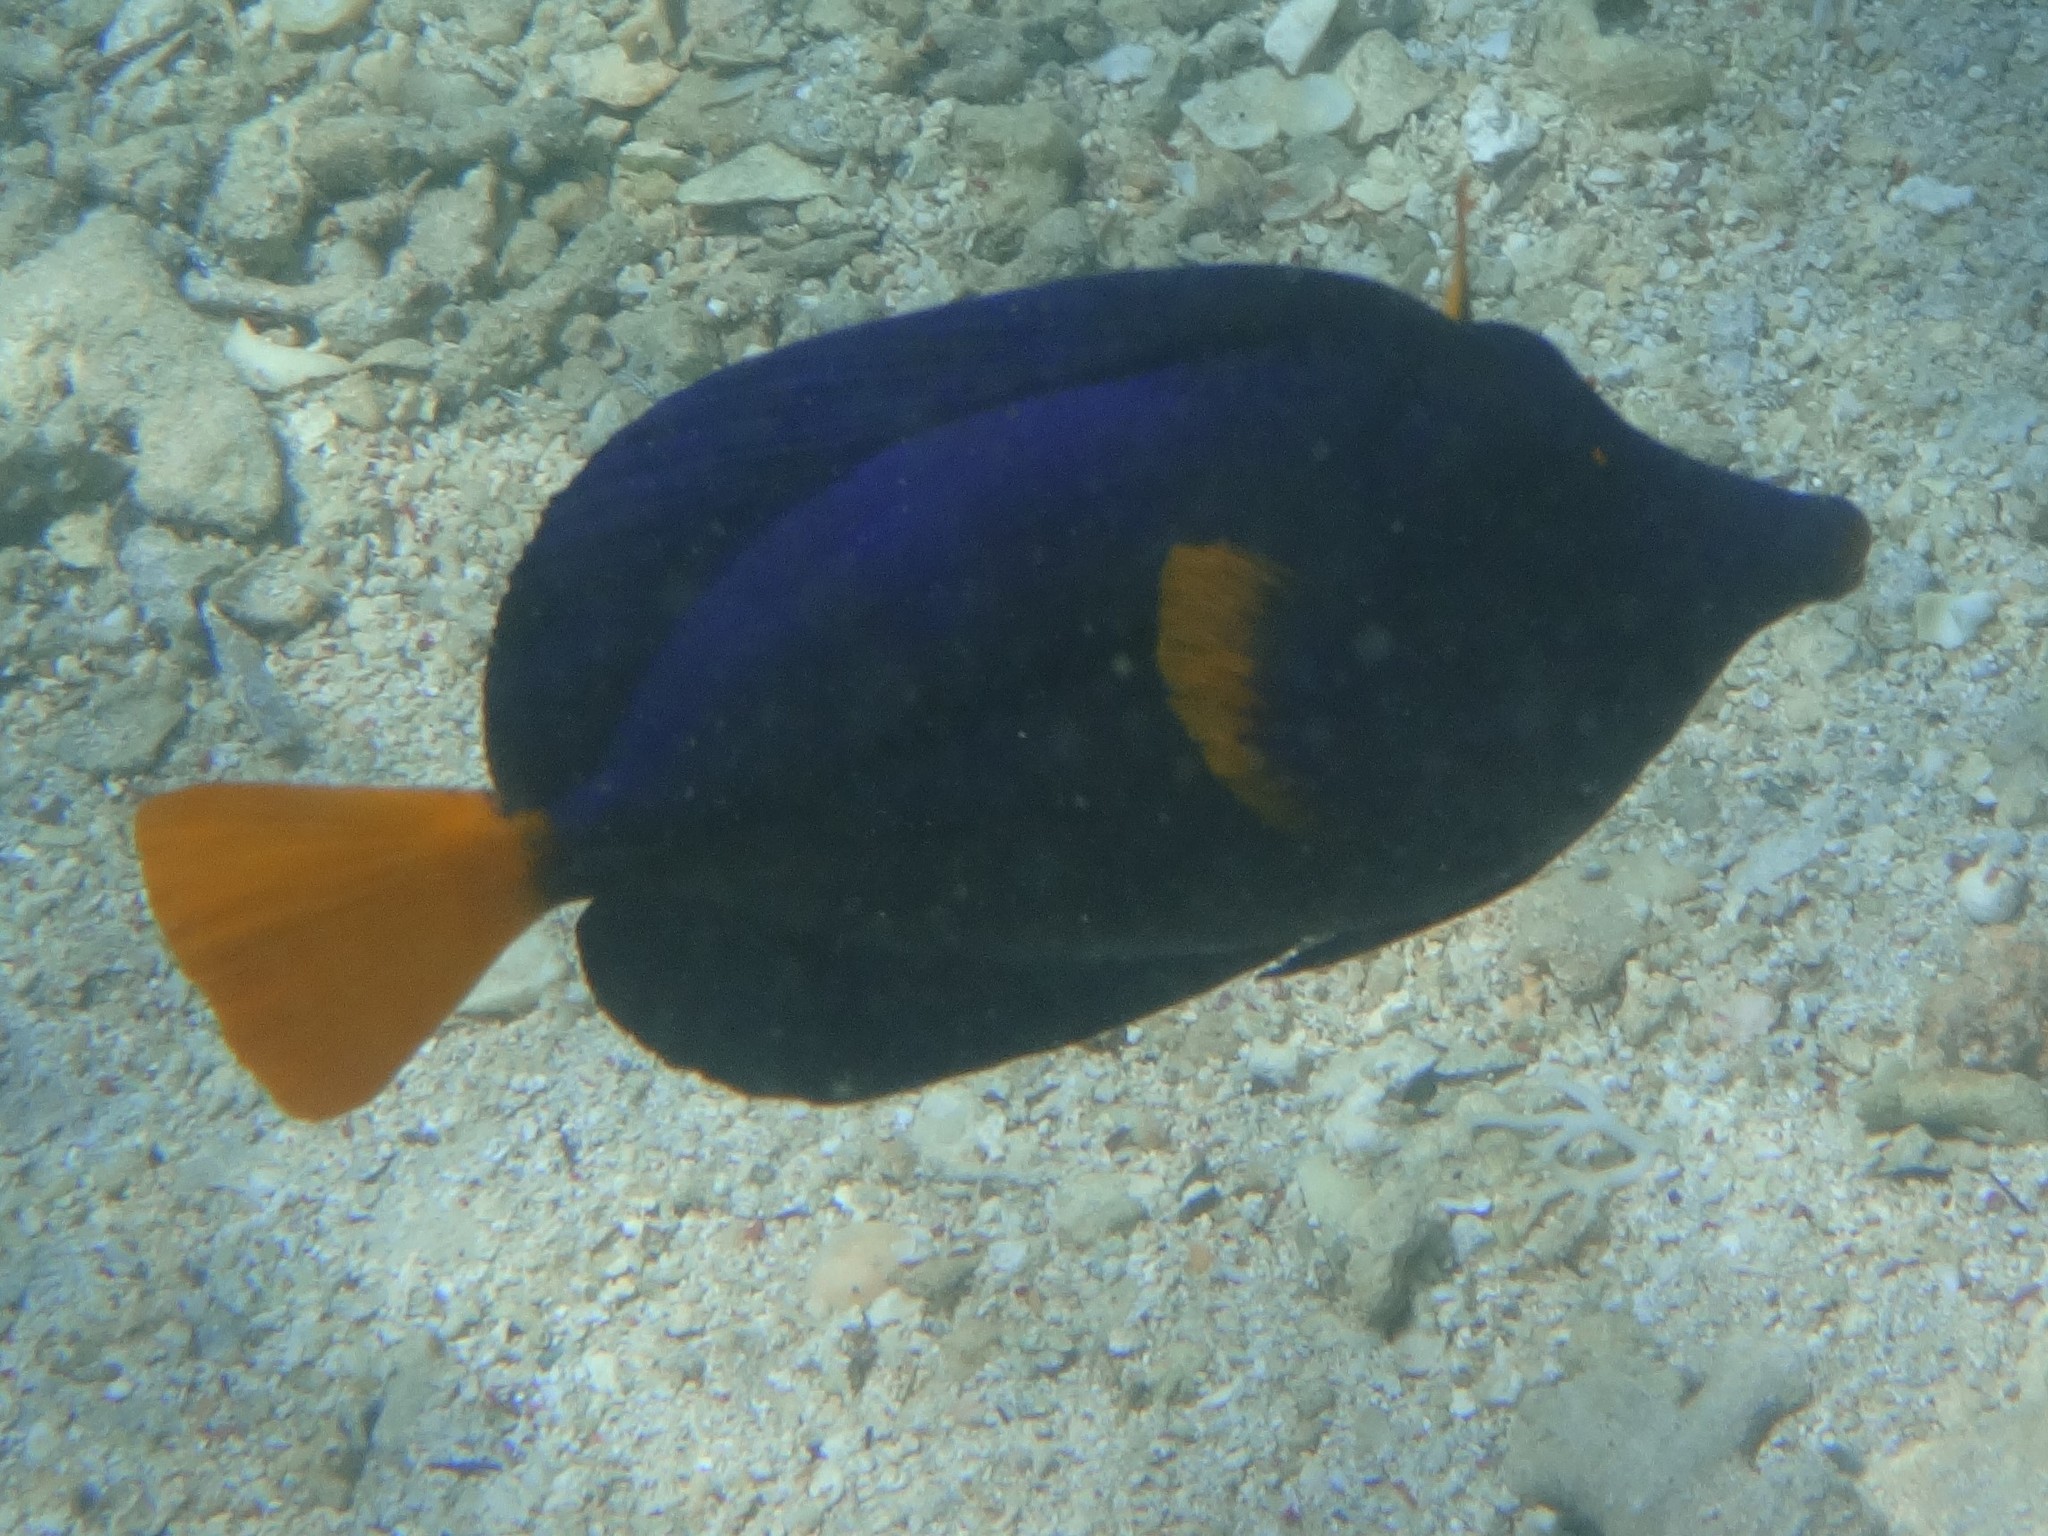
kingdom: Animalia
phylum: Chordata
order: Perciformes
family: Acanthuridae
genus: Zebrasoma
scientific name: Zebrasoma xanthurum
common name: Purple tang
